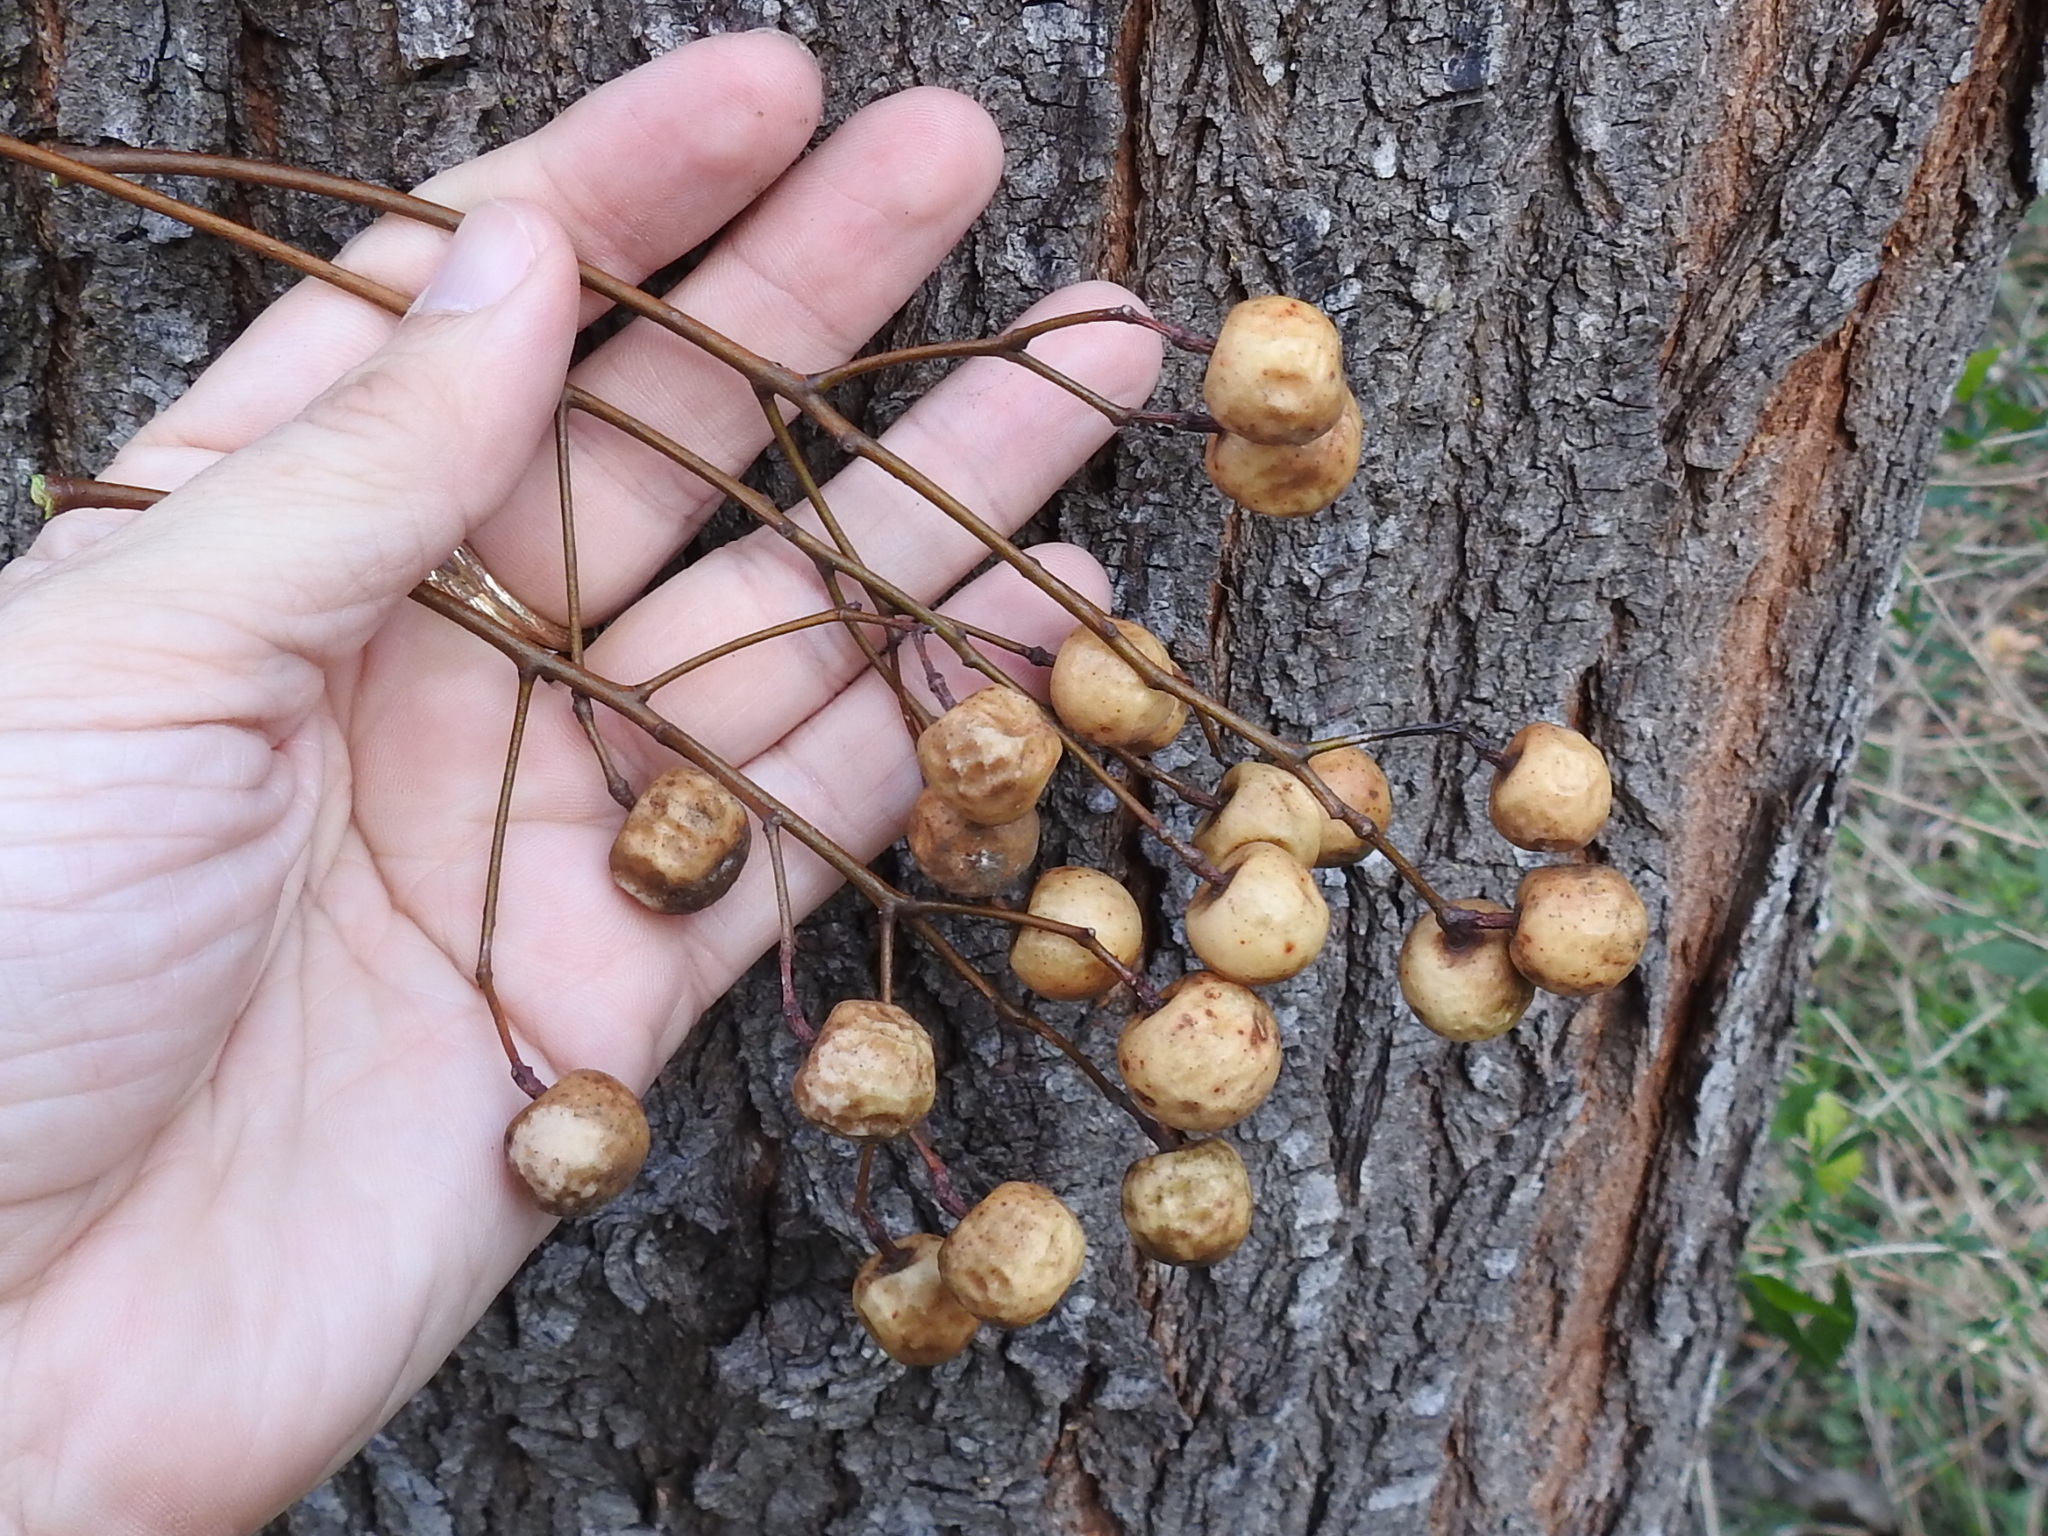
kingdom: Plantae
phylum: Tracheophyta
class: Magnoliopsida
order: Sapindales
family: Meliaceae
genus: Melia
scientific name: Melia azedarach
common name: Chinaberrytree
